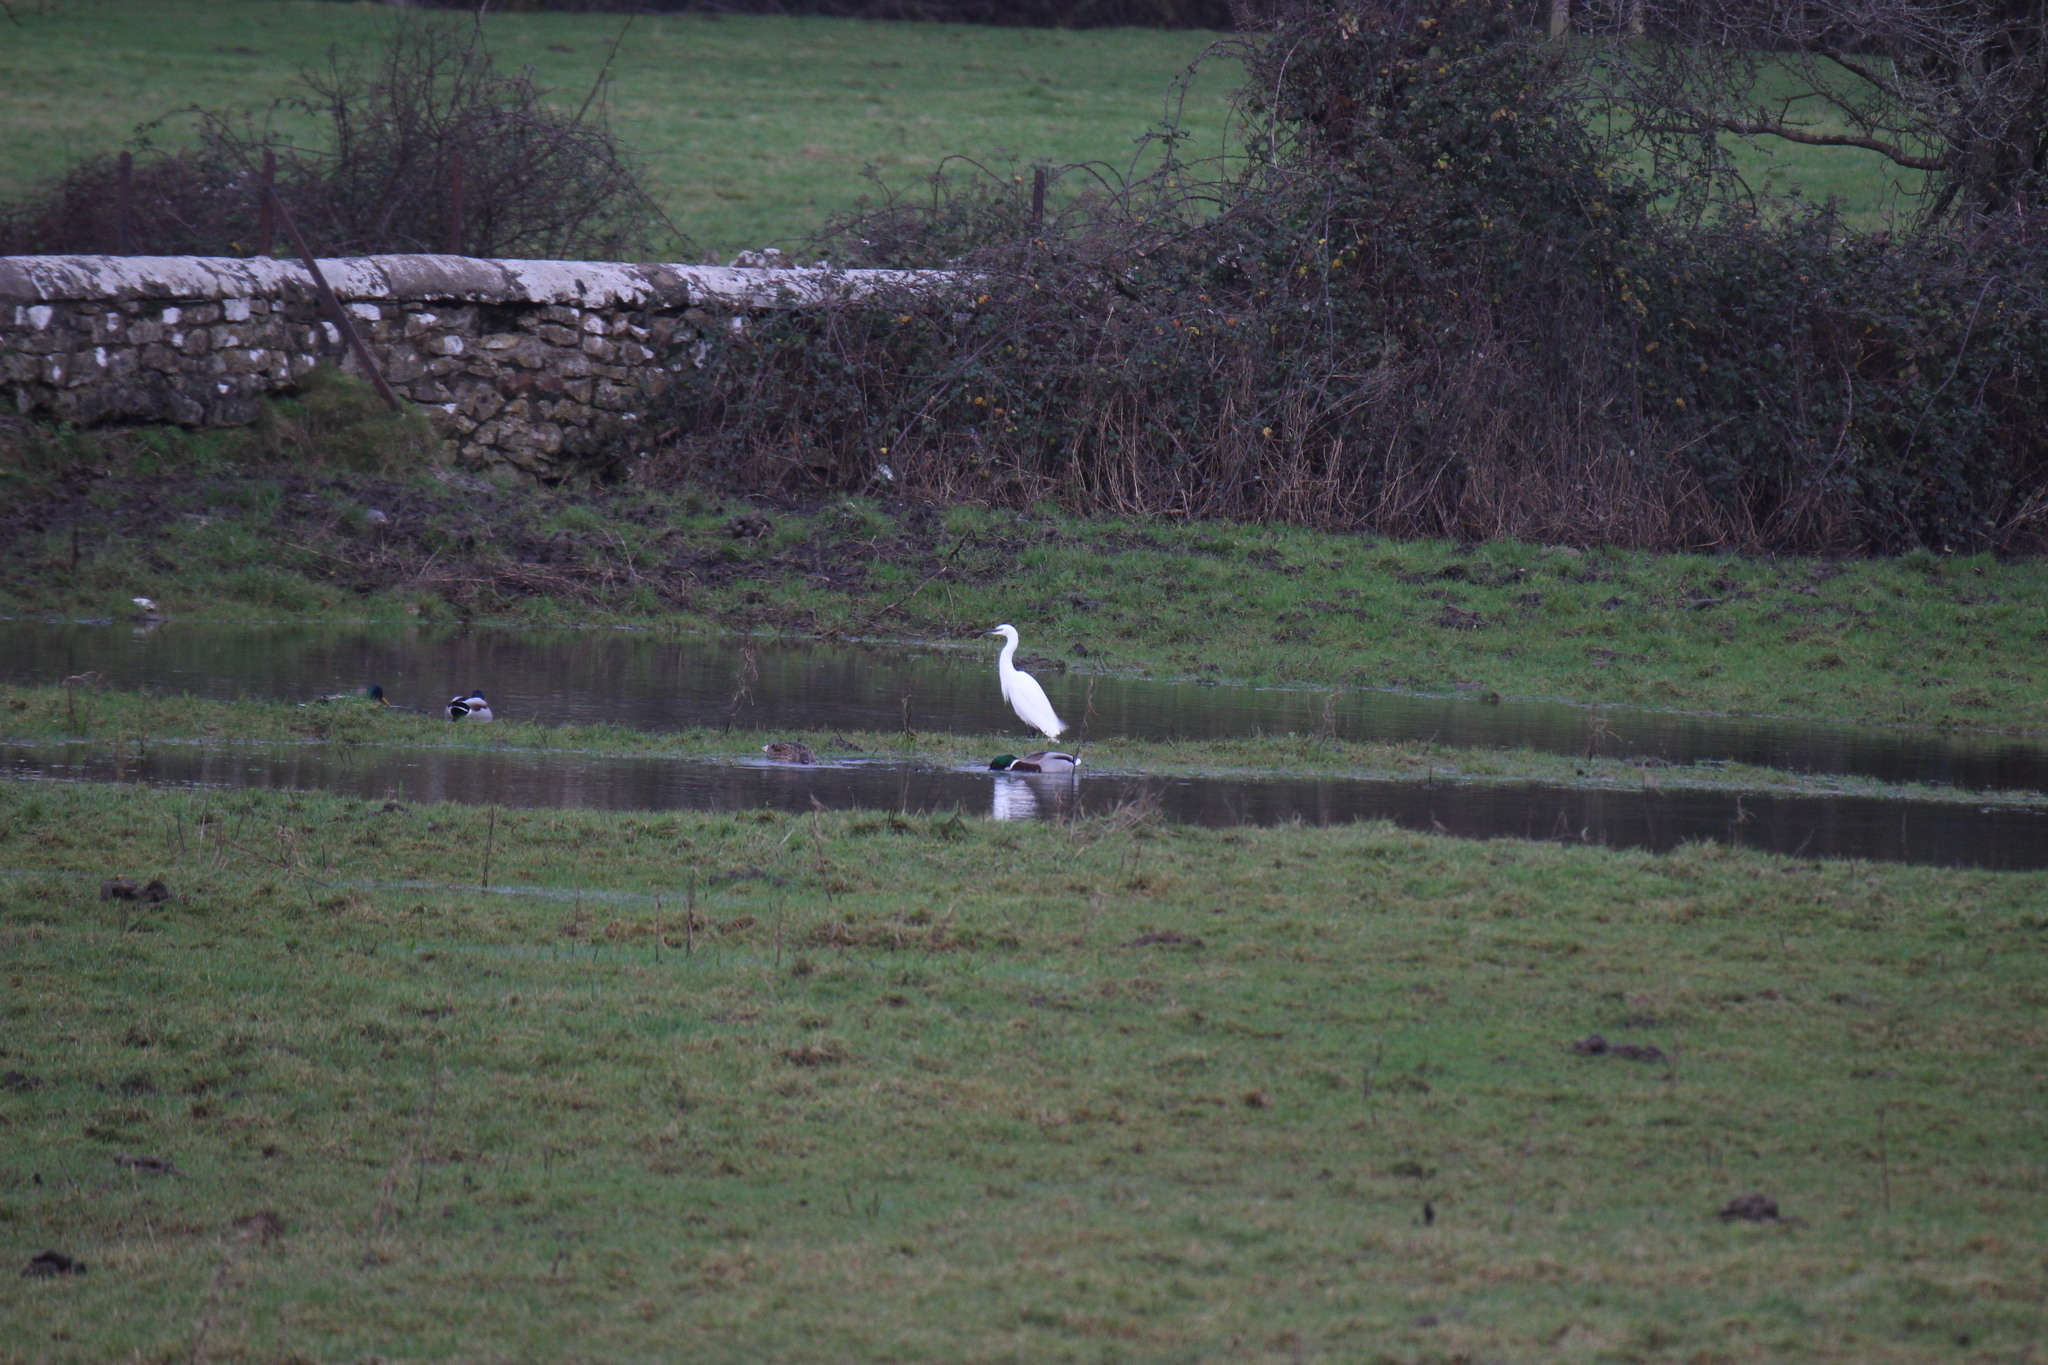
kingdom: Animalia
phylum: Chordata
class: Aves
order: Pelecaniformes
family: Ardeidae
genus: Egretta
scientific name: Egretta garzetta
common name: Little egret
